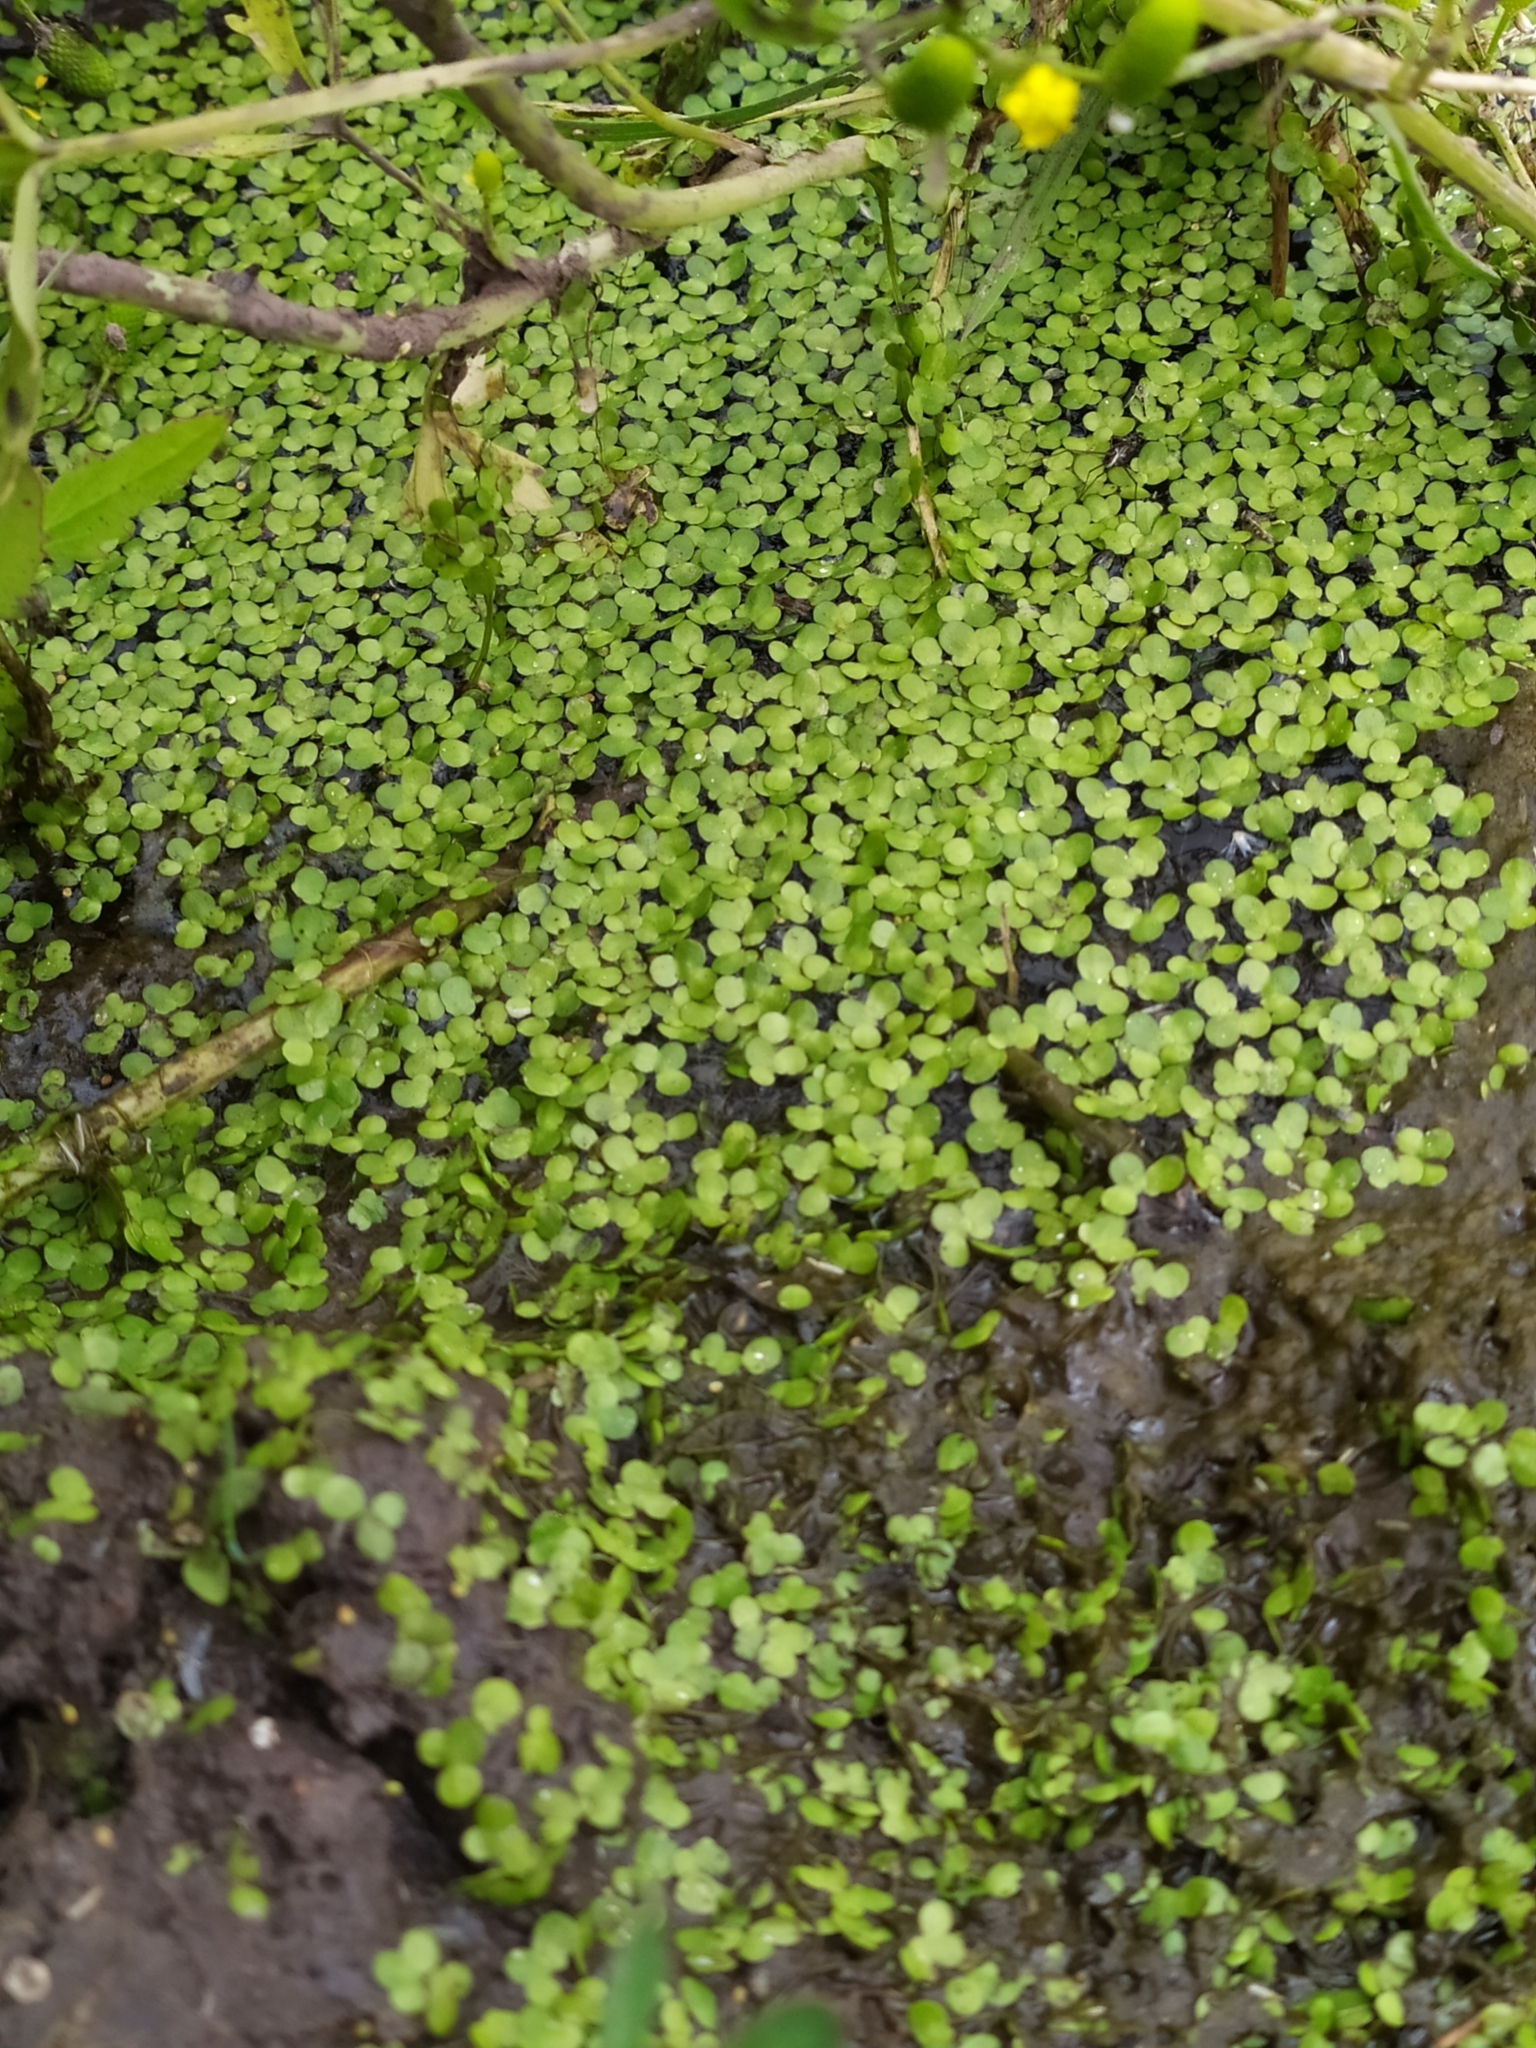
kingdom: Plantae
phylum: Tracheophyta
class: Liliopsida
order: Alismatales
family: Araceae
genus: Lemna
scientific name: Lemna minor
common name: Common duckweed
